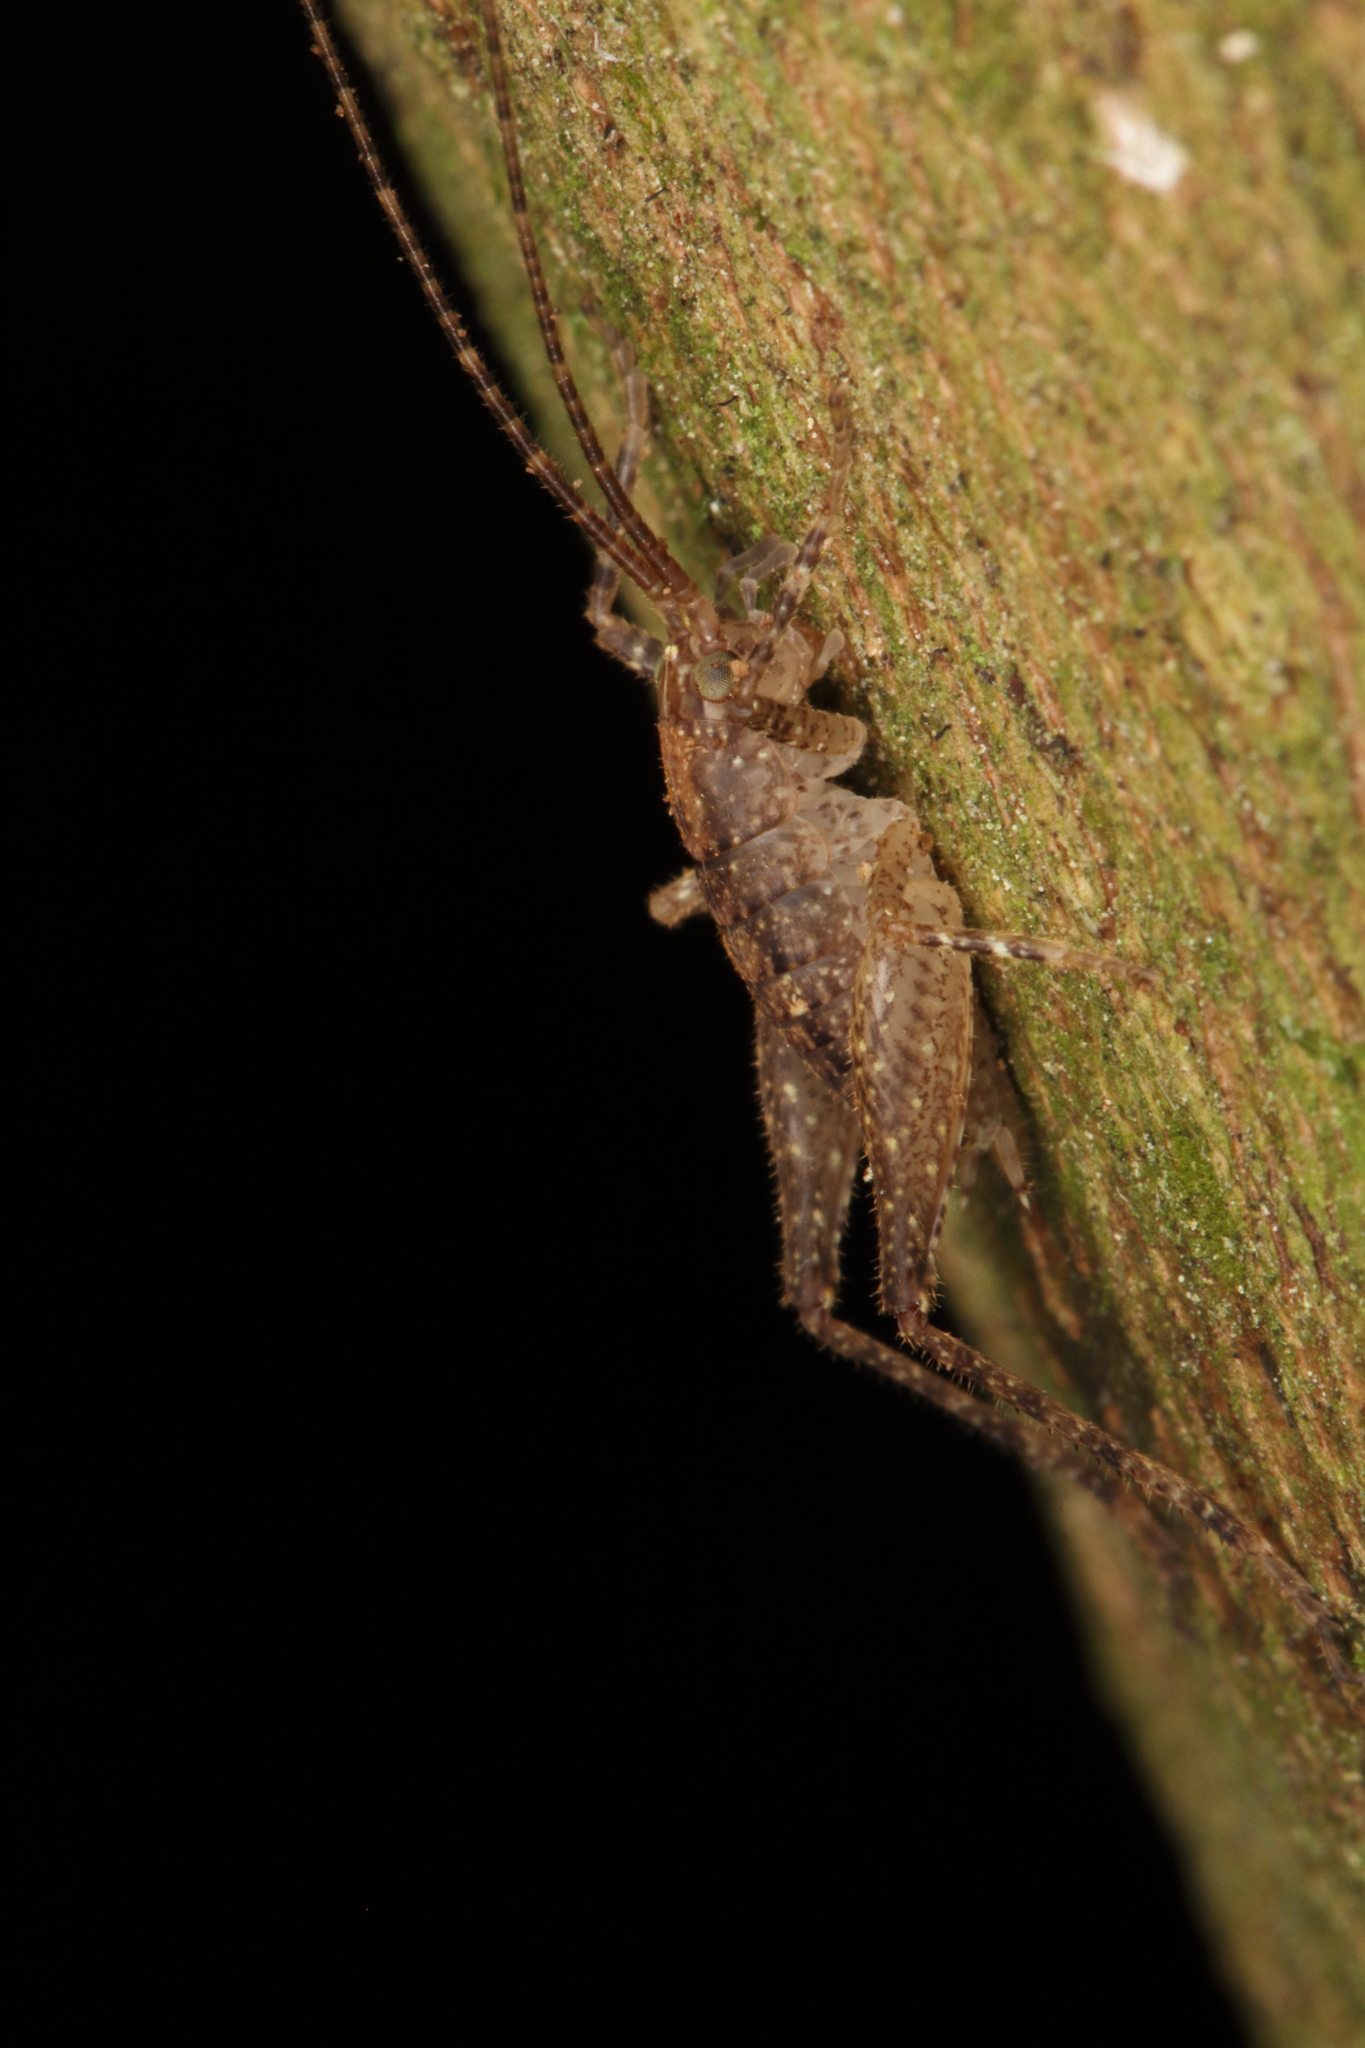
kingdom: Animalia
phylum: Arthropoda
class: Insecta
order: Orthoptera
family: Rhaphidophoridae
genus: Isoplectron
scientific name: Isoplectron armatum
